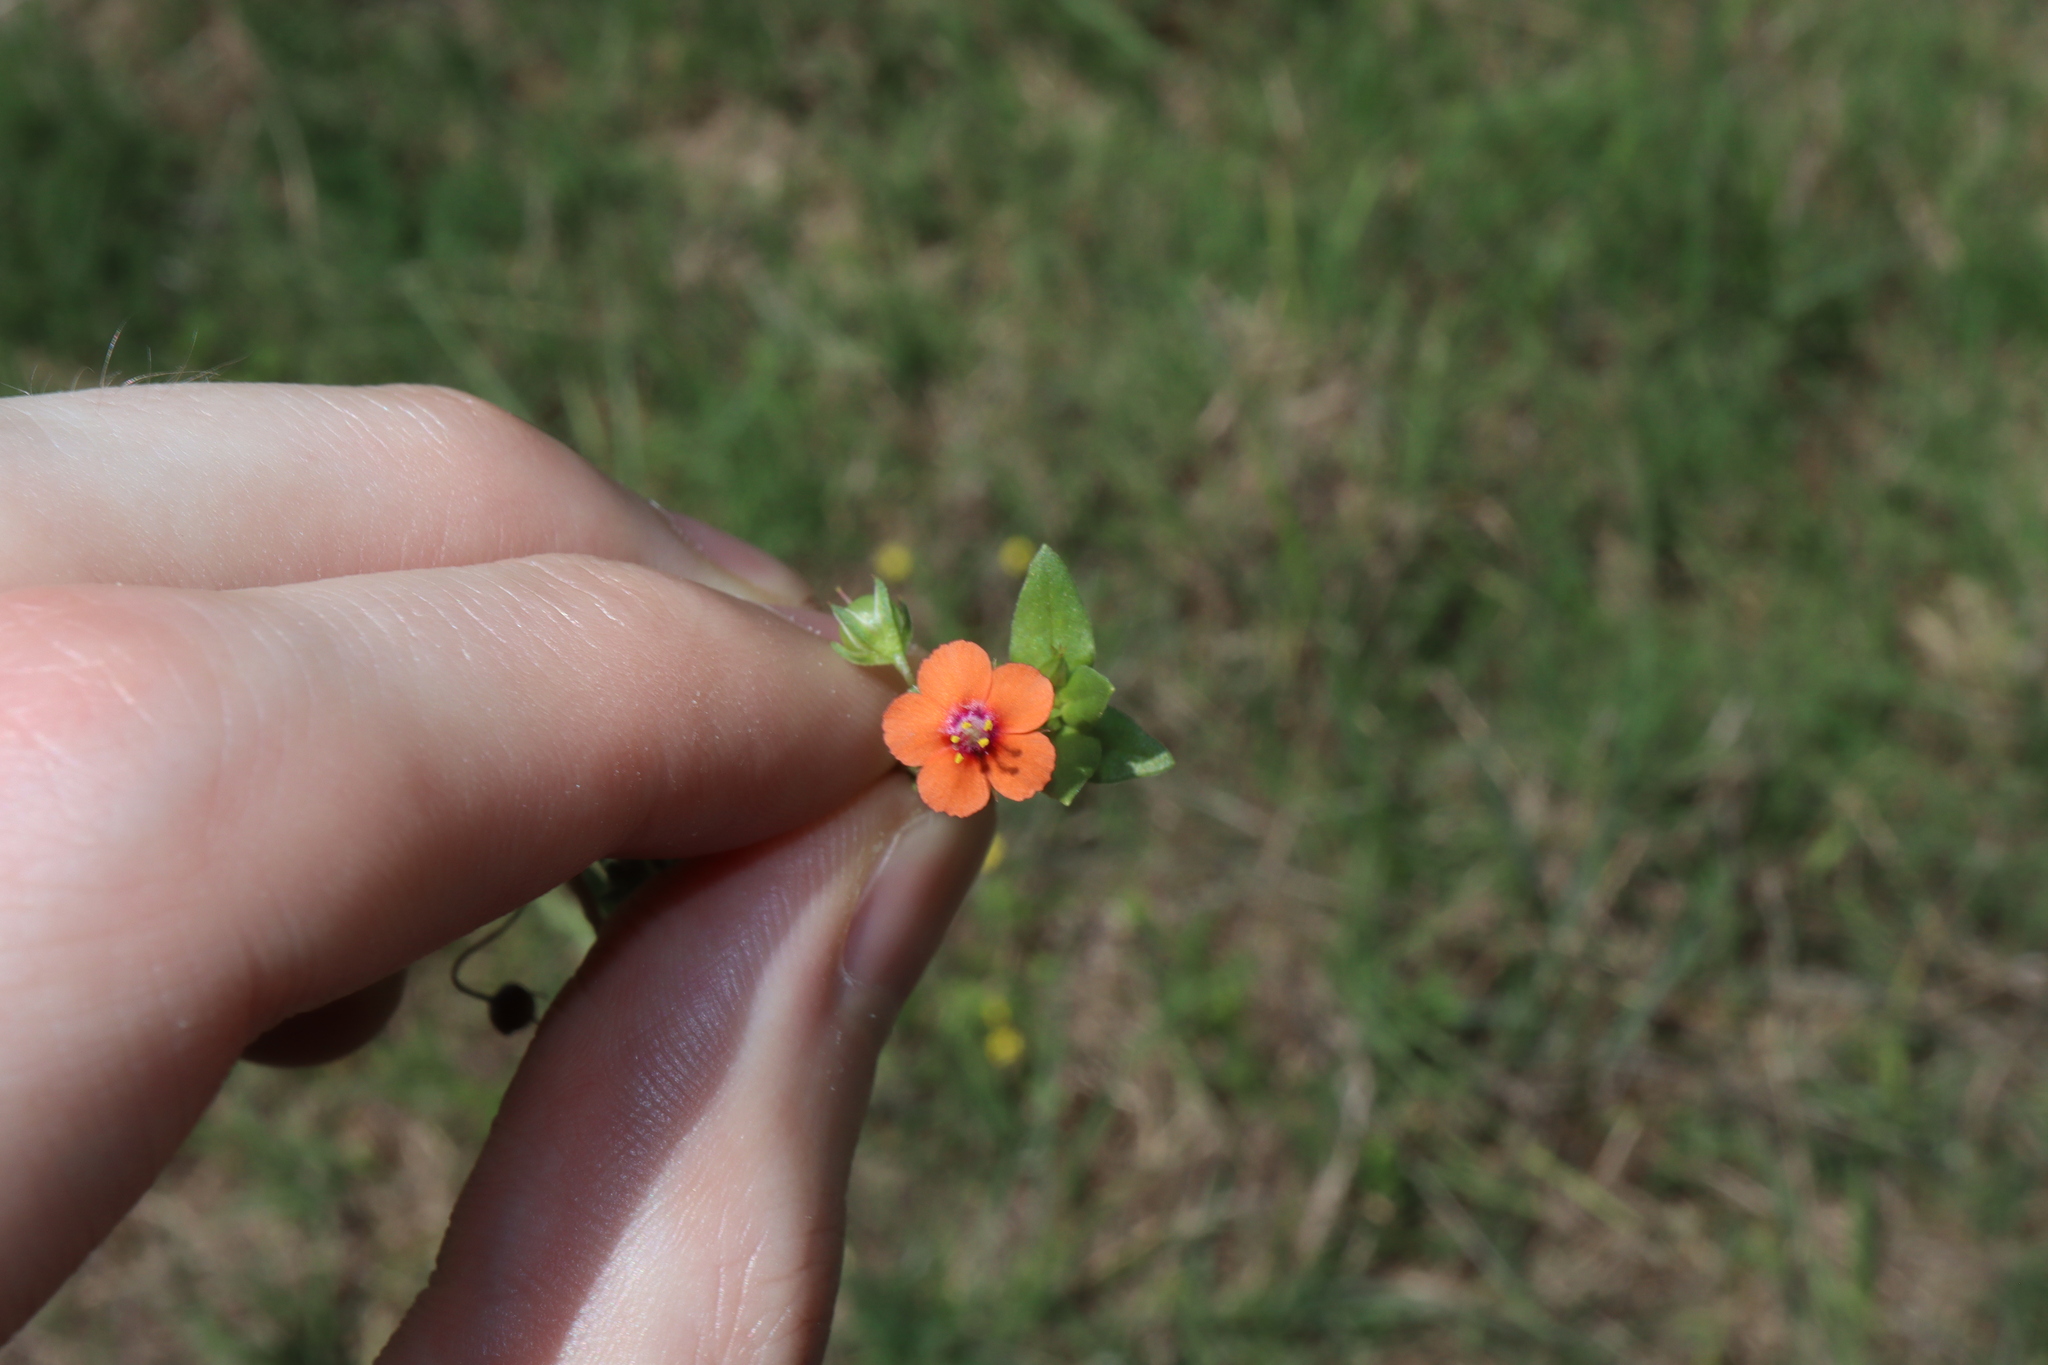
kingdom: Plantae
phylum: Tracheophyta
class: Magnoliopsida
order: Ericales
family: Primulaceae
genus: Lysimachia
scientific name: Lysimachia arvensis
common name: Scarlet pimpernel
